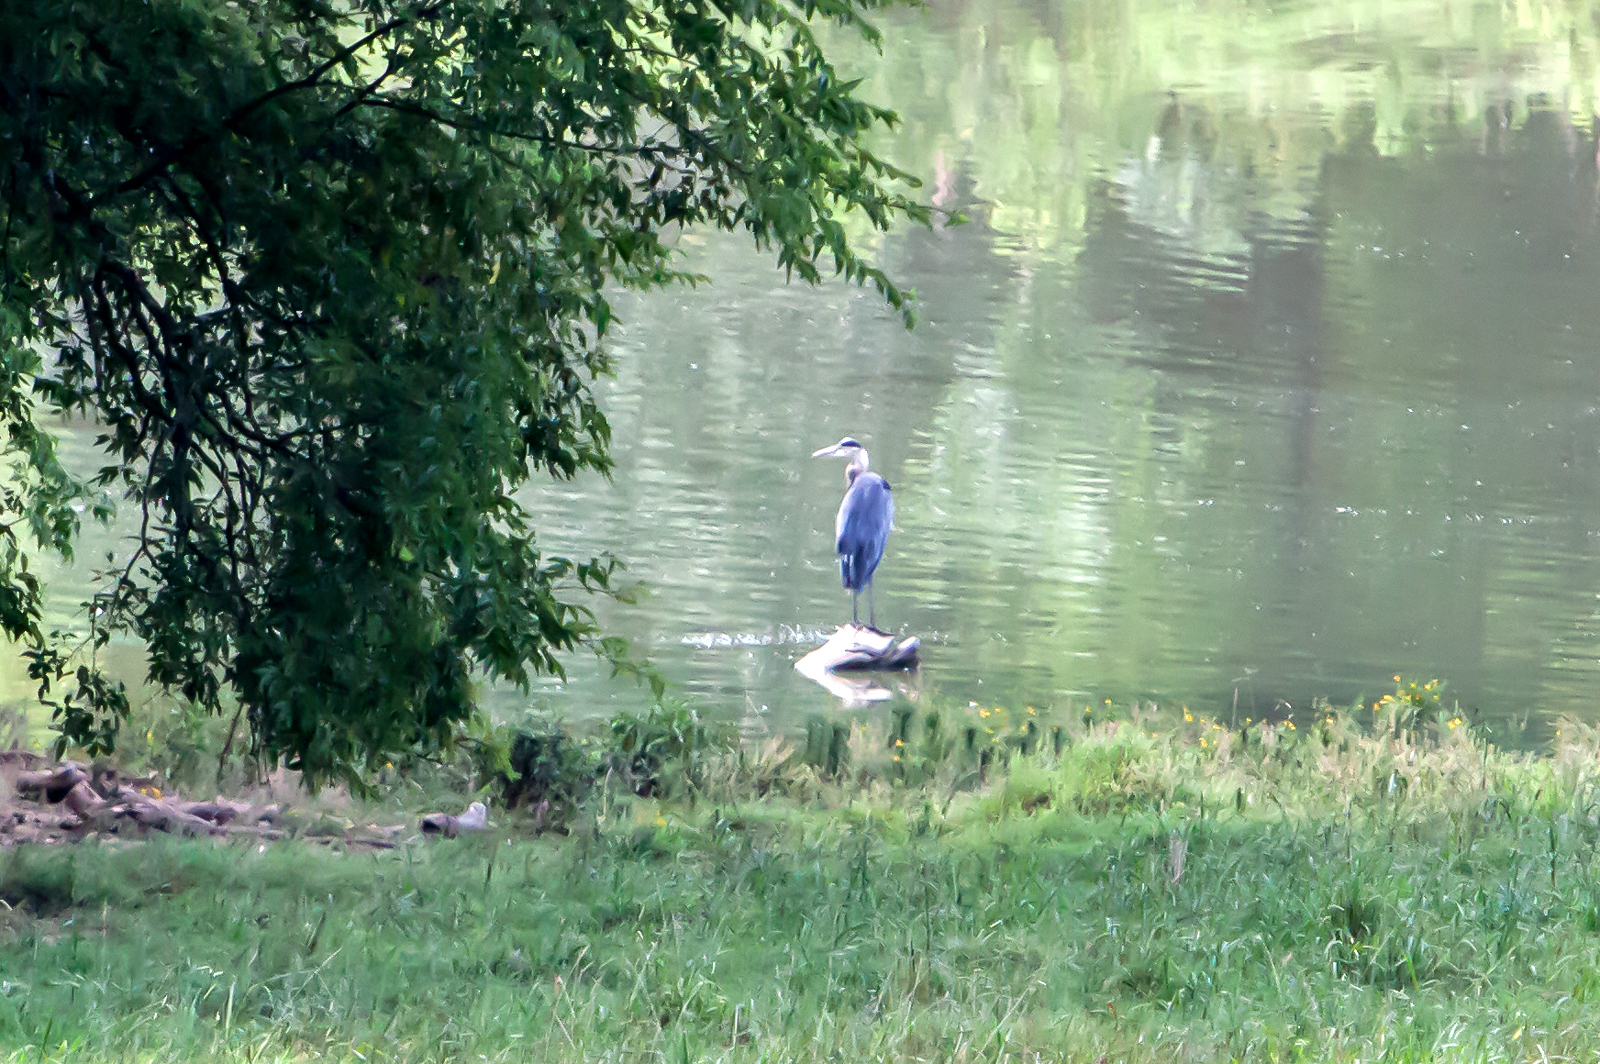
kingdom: Animalia
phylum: Chordata
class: Aves
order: Pelecaniformes
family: Ardeidae
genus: Ardea
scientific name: Ardea herodias
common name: Great blue heron
